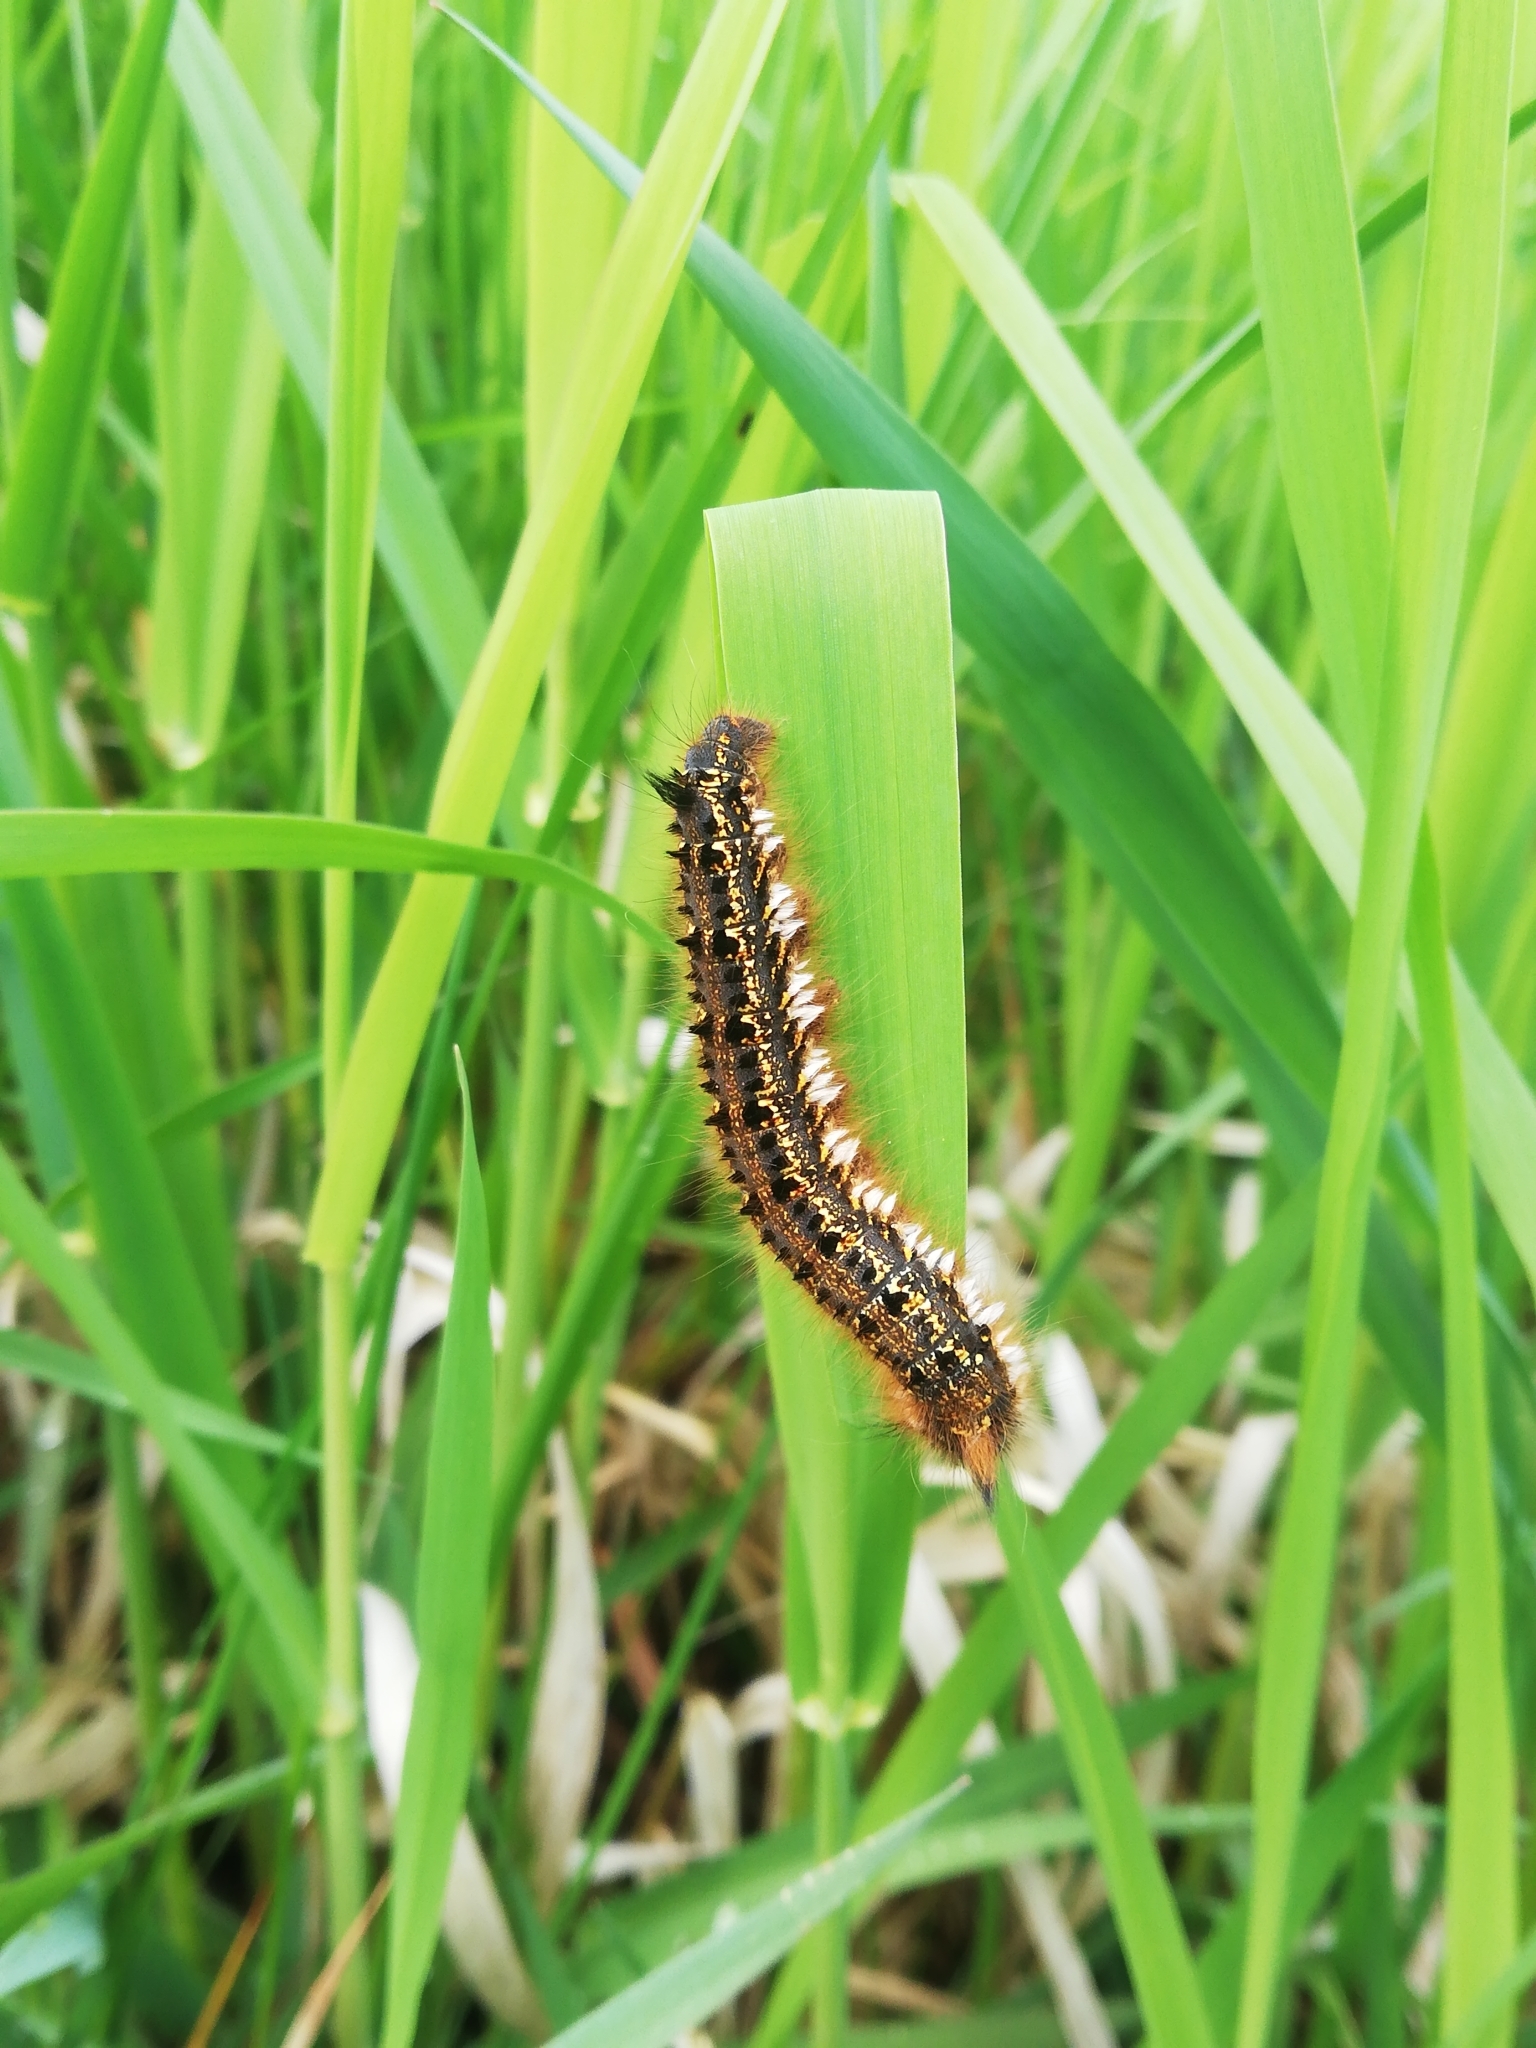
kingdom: Animalia
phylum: Arthropoda
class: Insecta
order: Lepidoptera
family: Lasiocampidae
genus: Euthrix
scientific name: Euthrix potatoria
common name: Drinker
